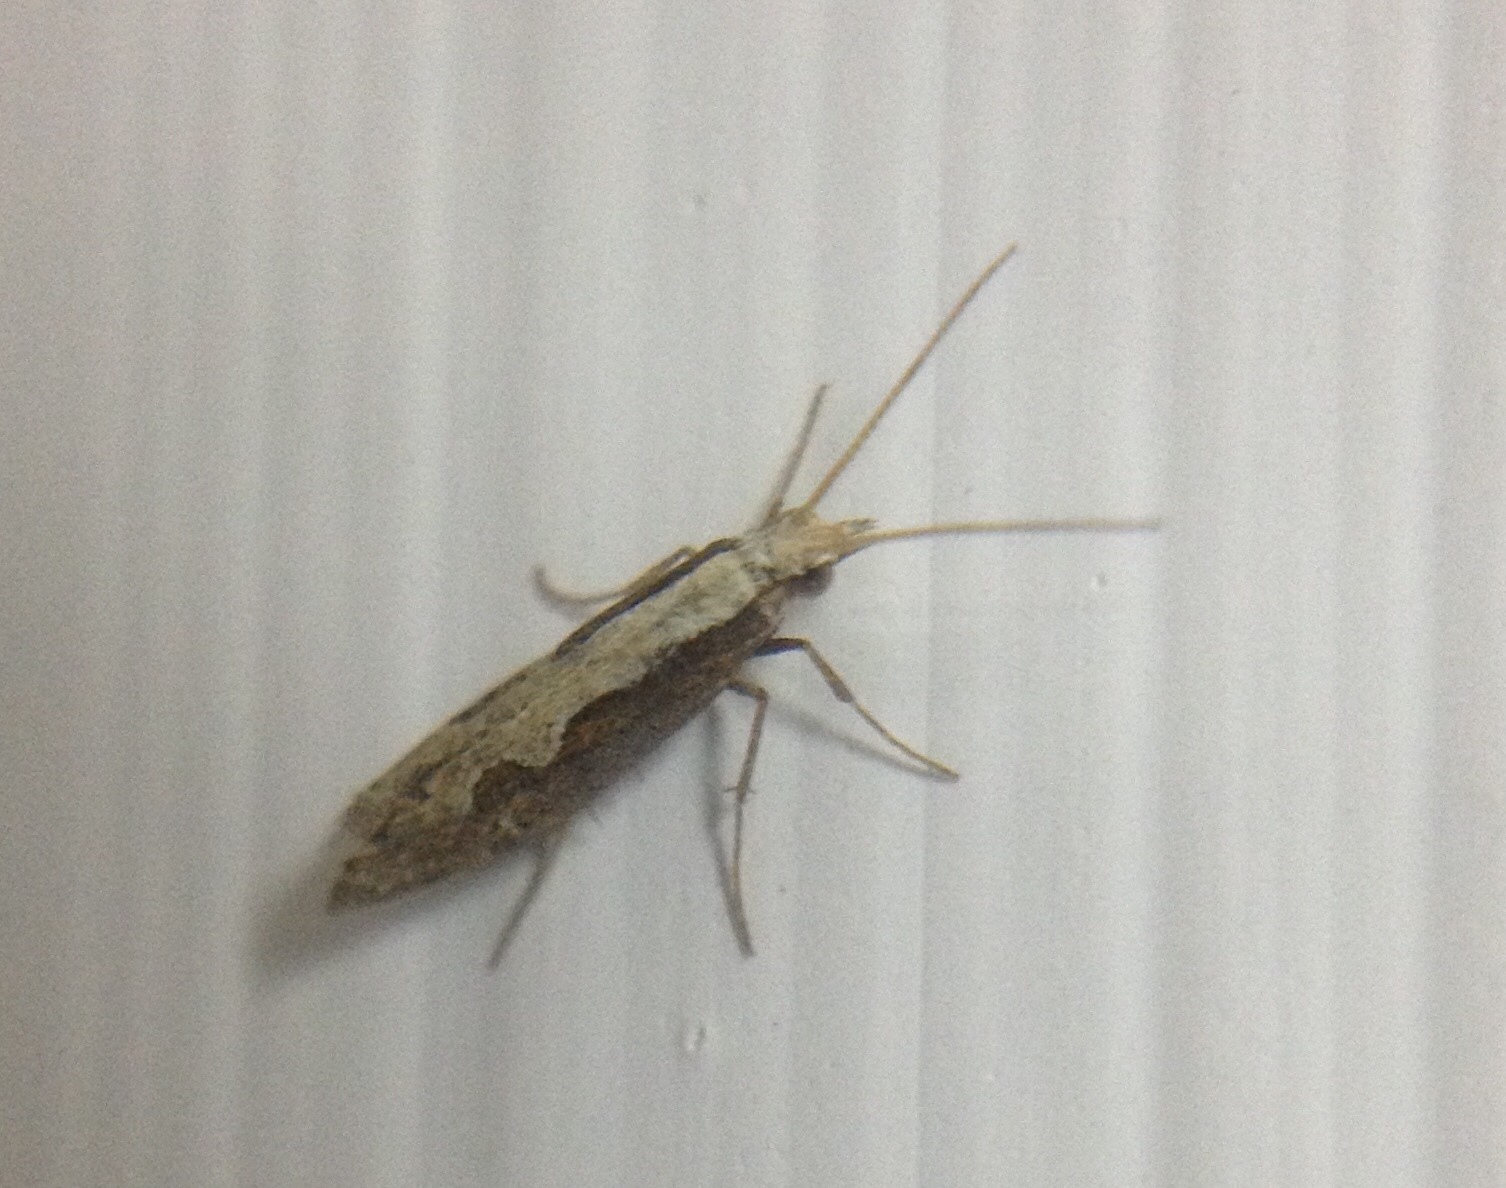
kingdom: Animalia
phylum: Arthropoda
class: Insecta
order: Lepidoptera
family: Plutellidae
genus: Plutella
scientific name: Plutella xylostella
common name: Diamond-back moth
